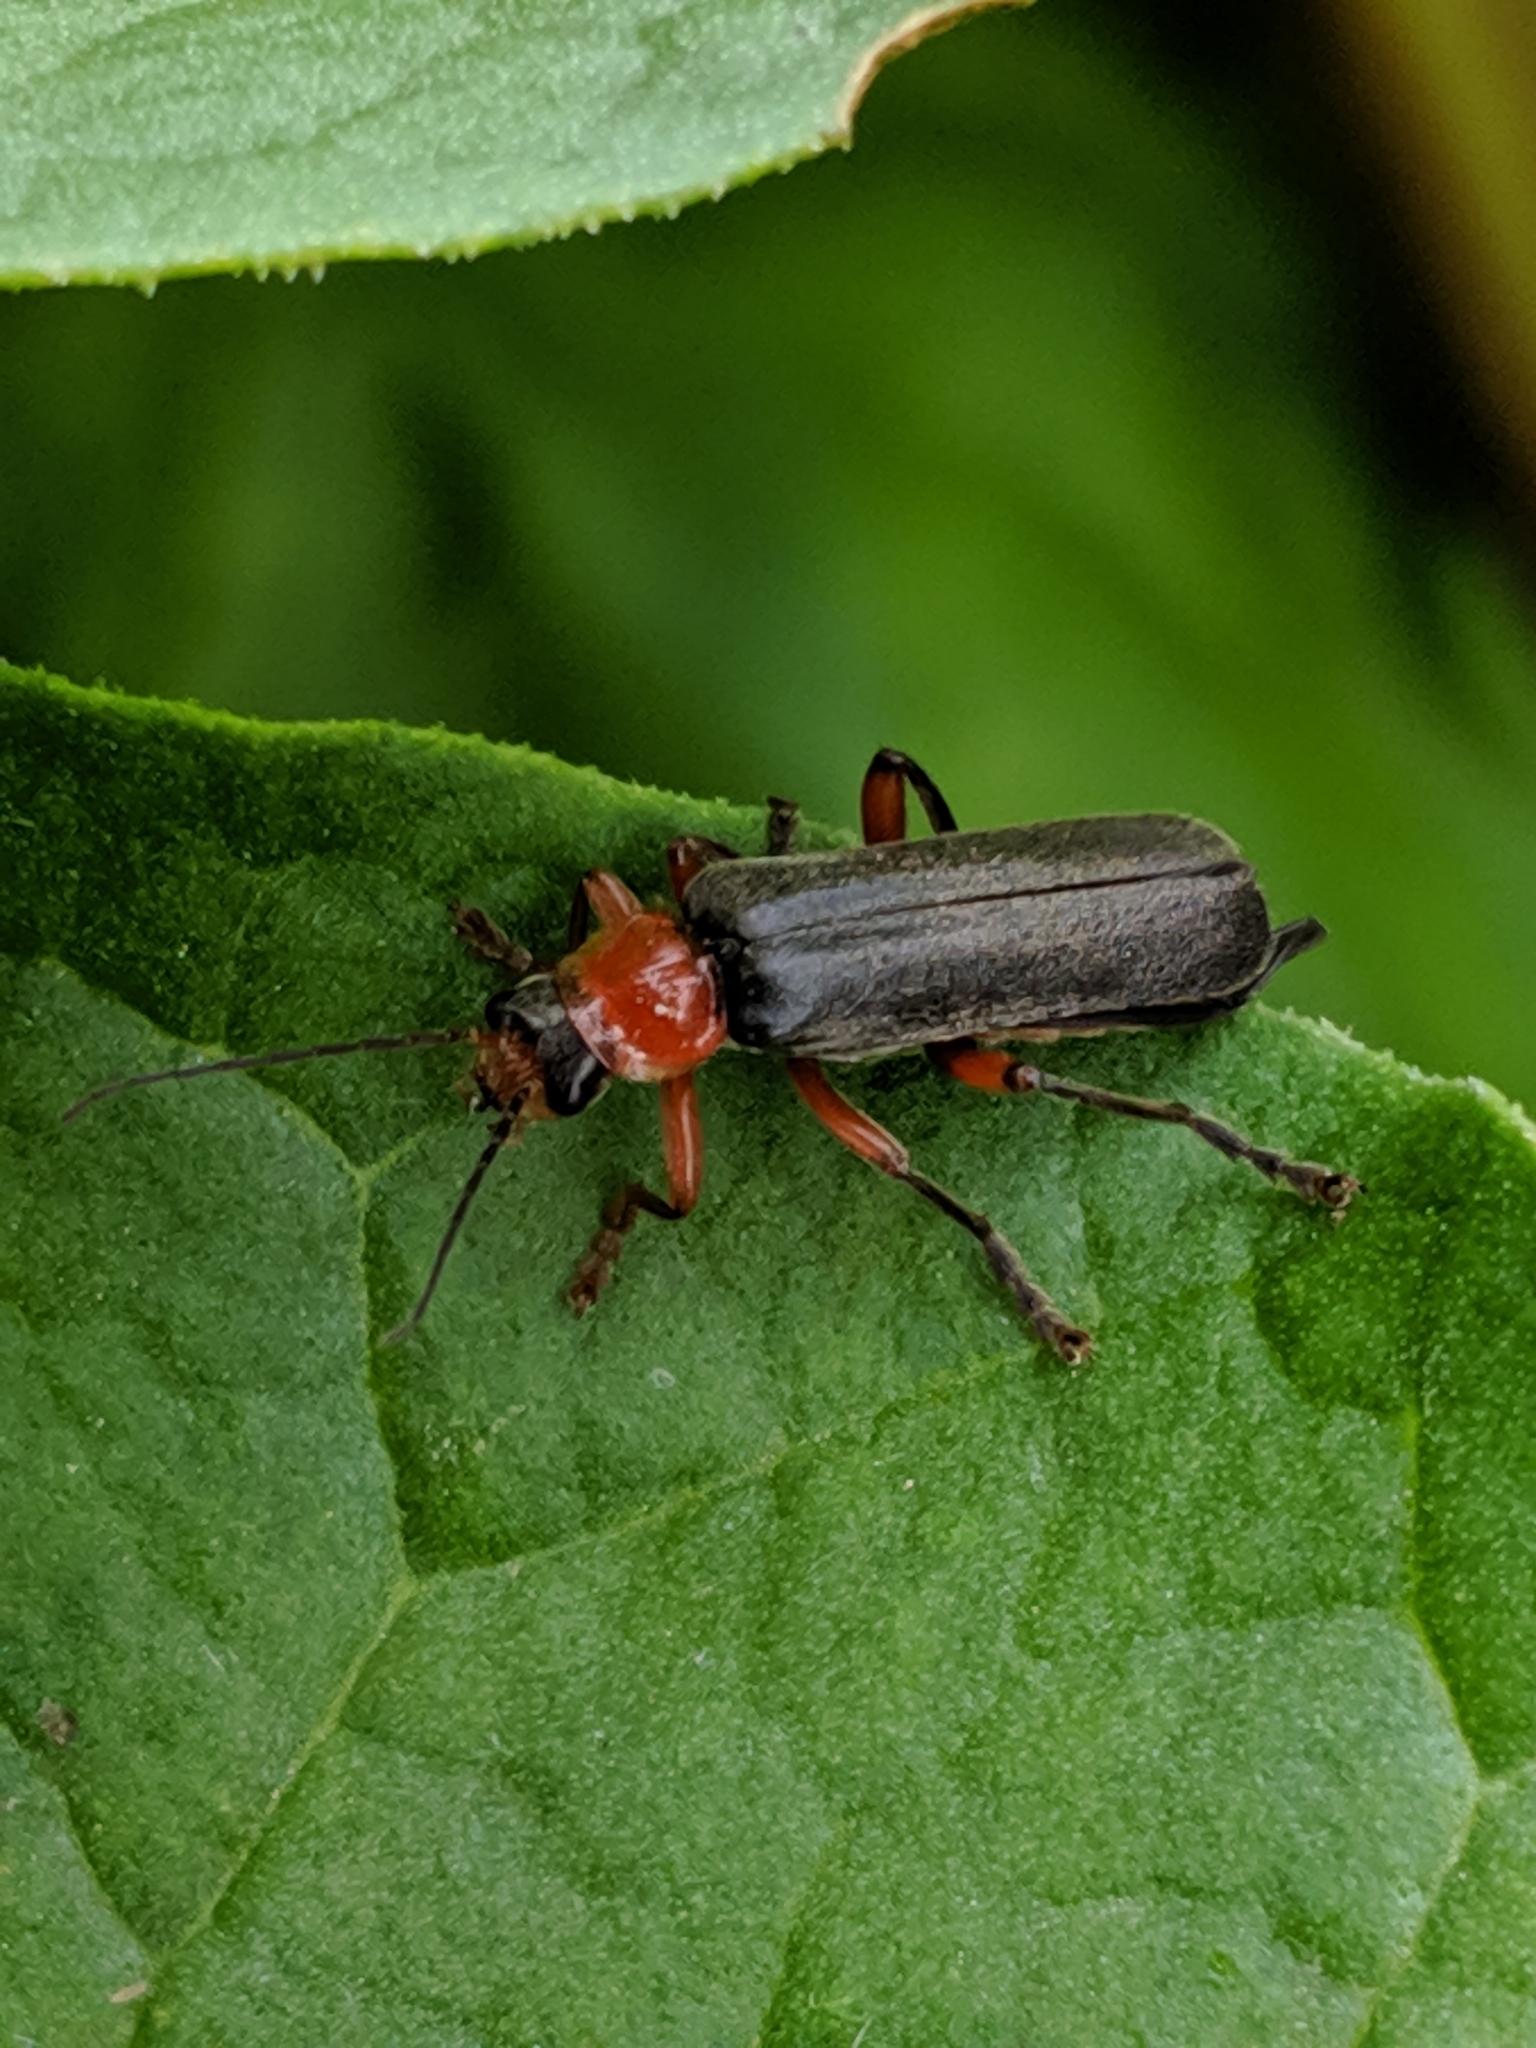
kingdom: Animalia
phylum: Arthropoda
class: Insecta
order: Coleoptera
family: Cantharidae
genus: Cantharis
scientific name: Cantharis pellucida
